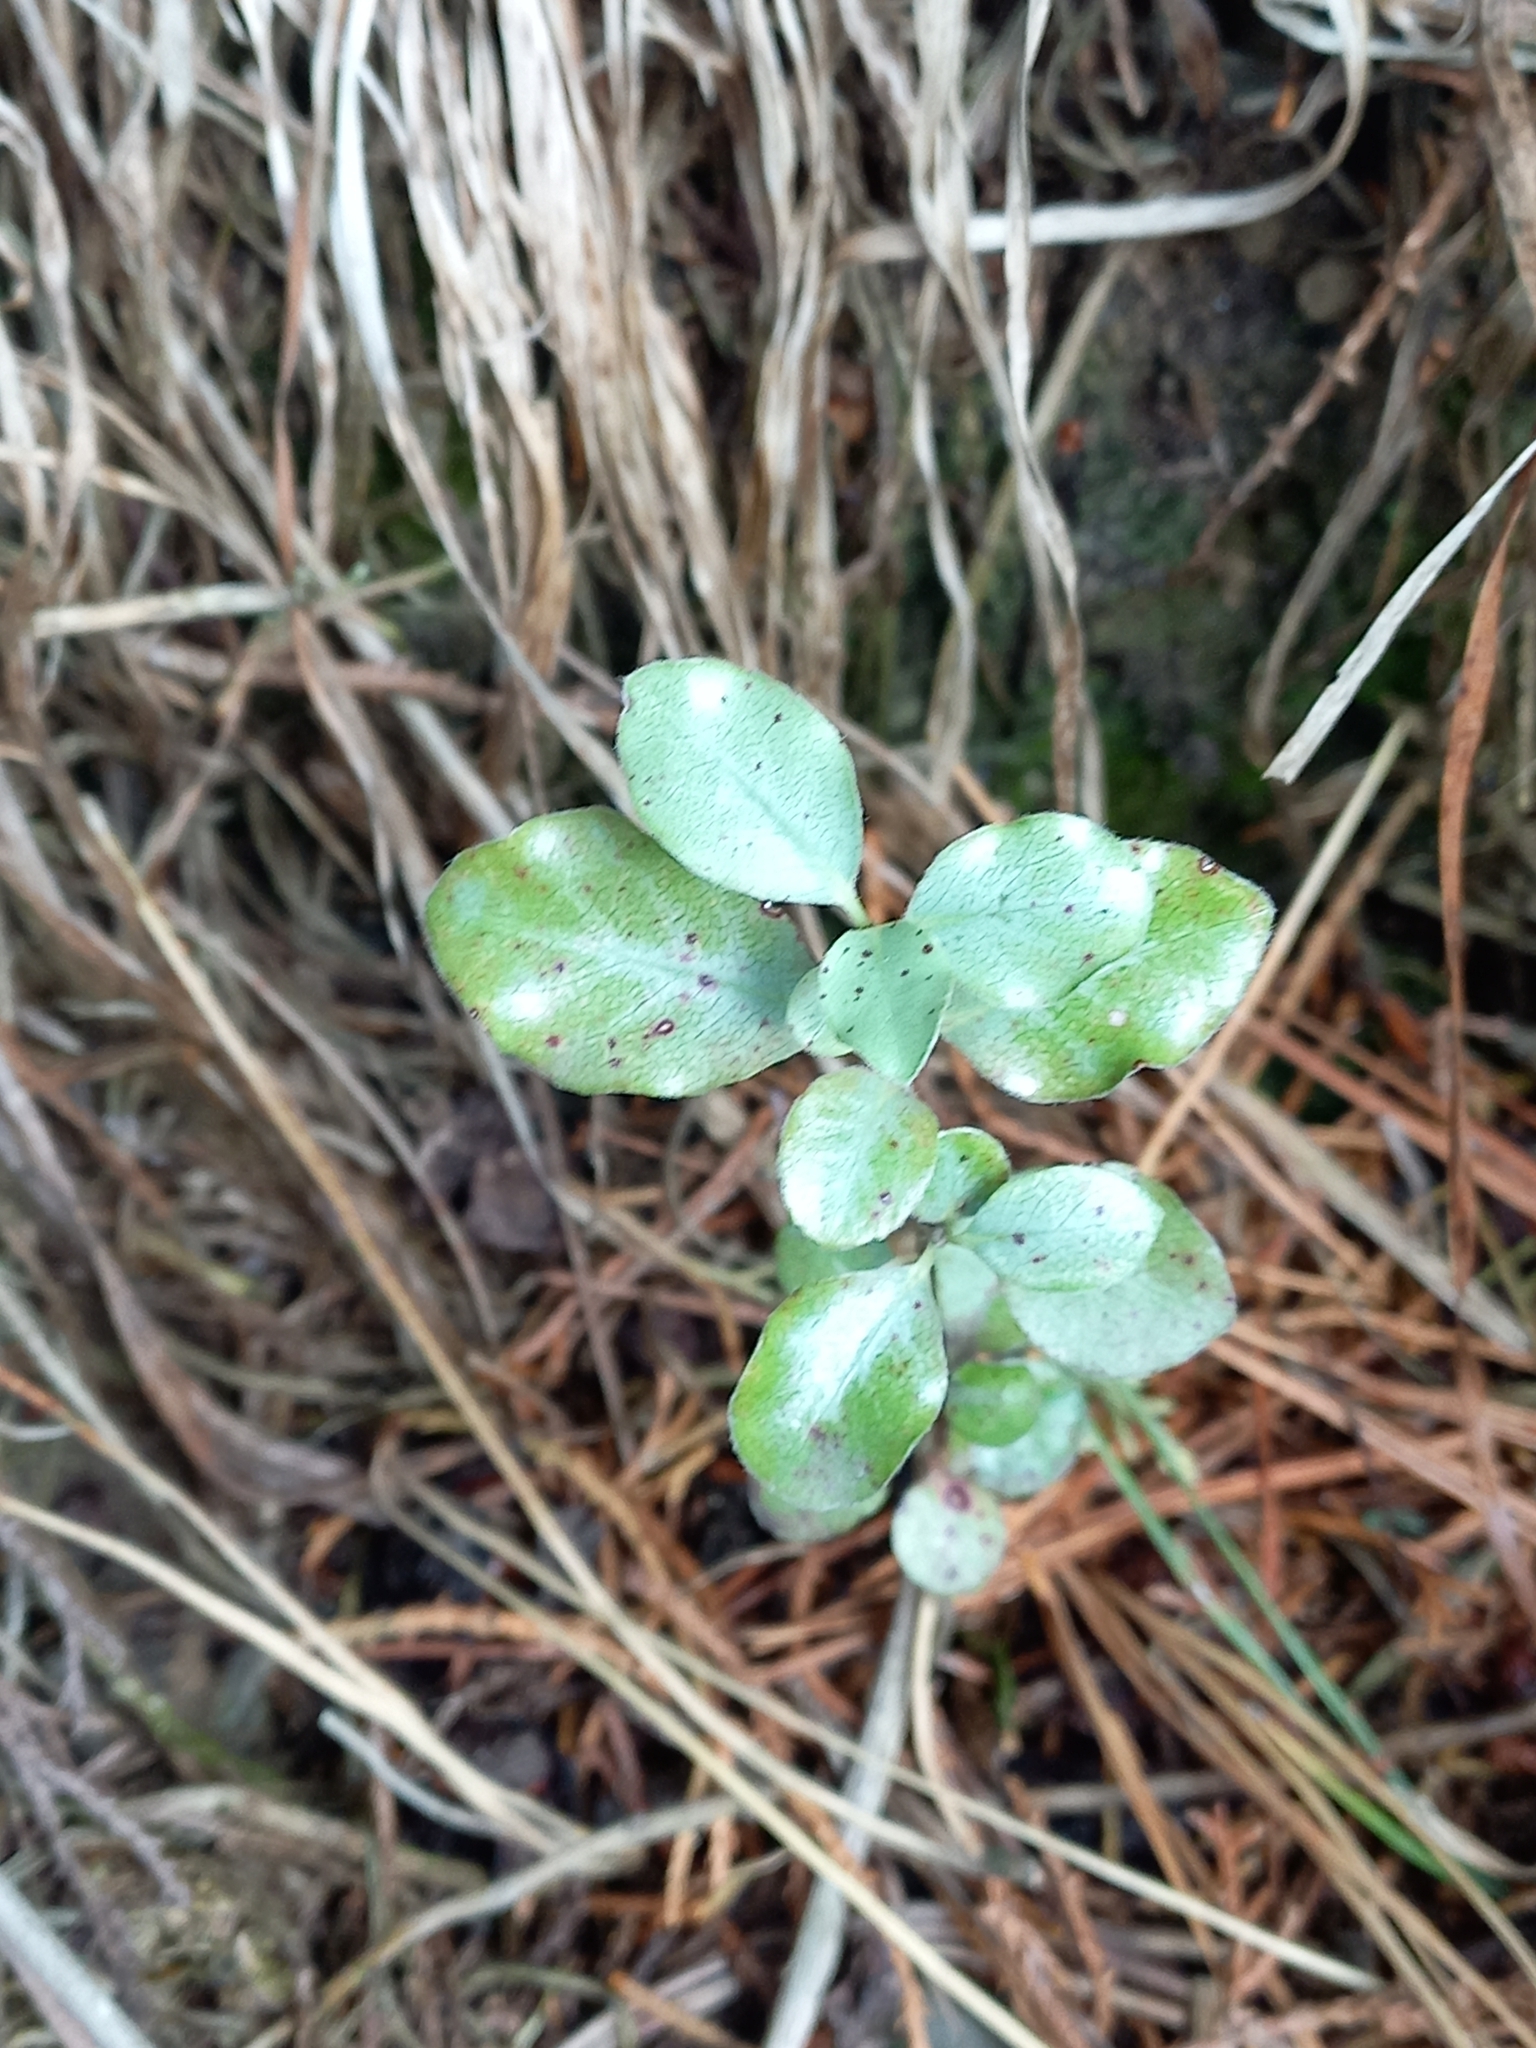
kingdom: Plantae
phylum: Tracheophyta
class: Magnoliopsida
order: Apiales
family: Pittosporaceae
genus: Pittosporum
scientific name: Pittosporum tenuifolium
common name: Kohuhu
